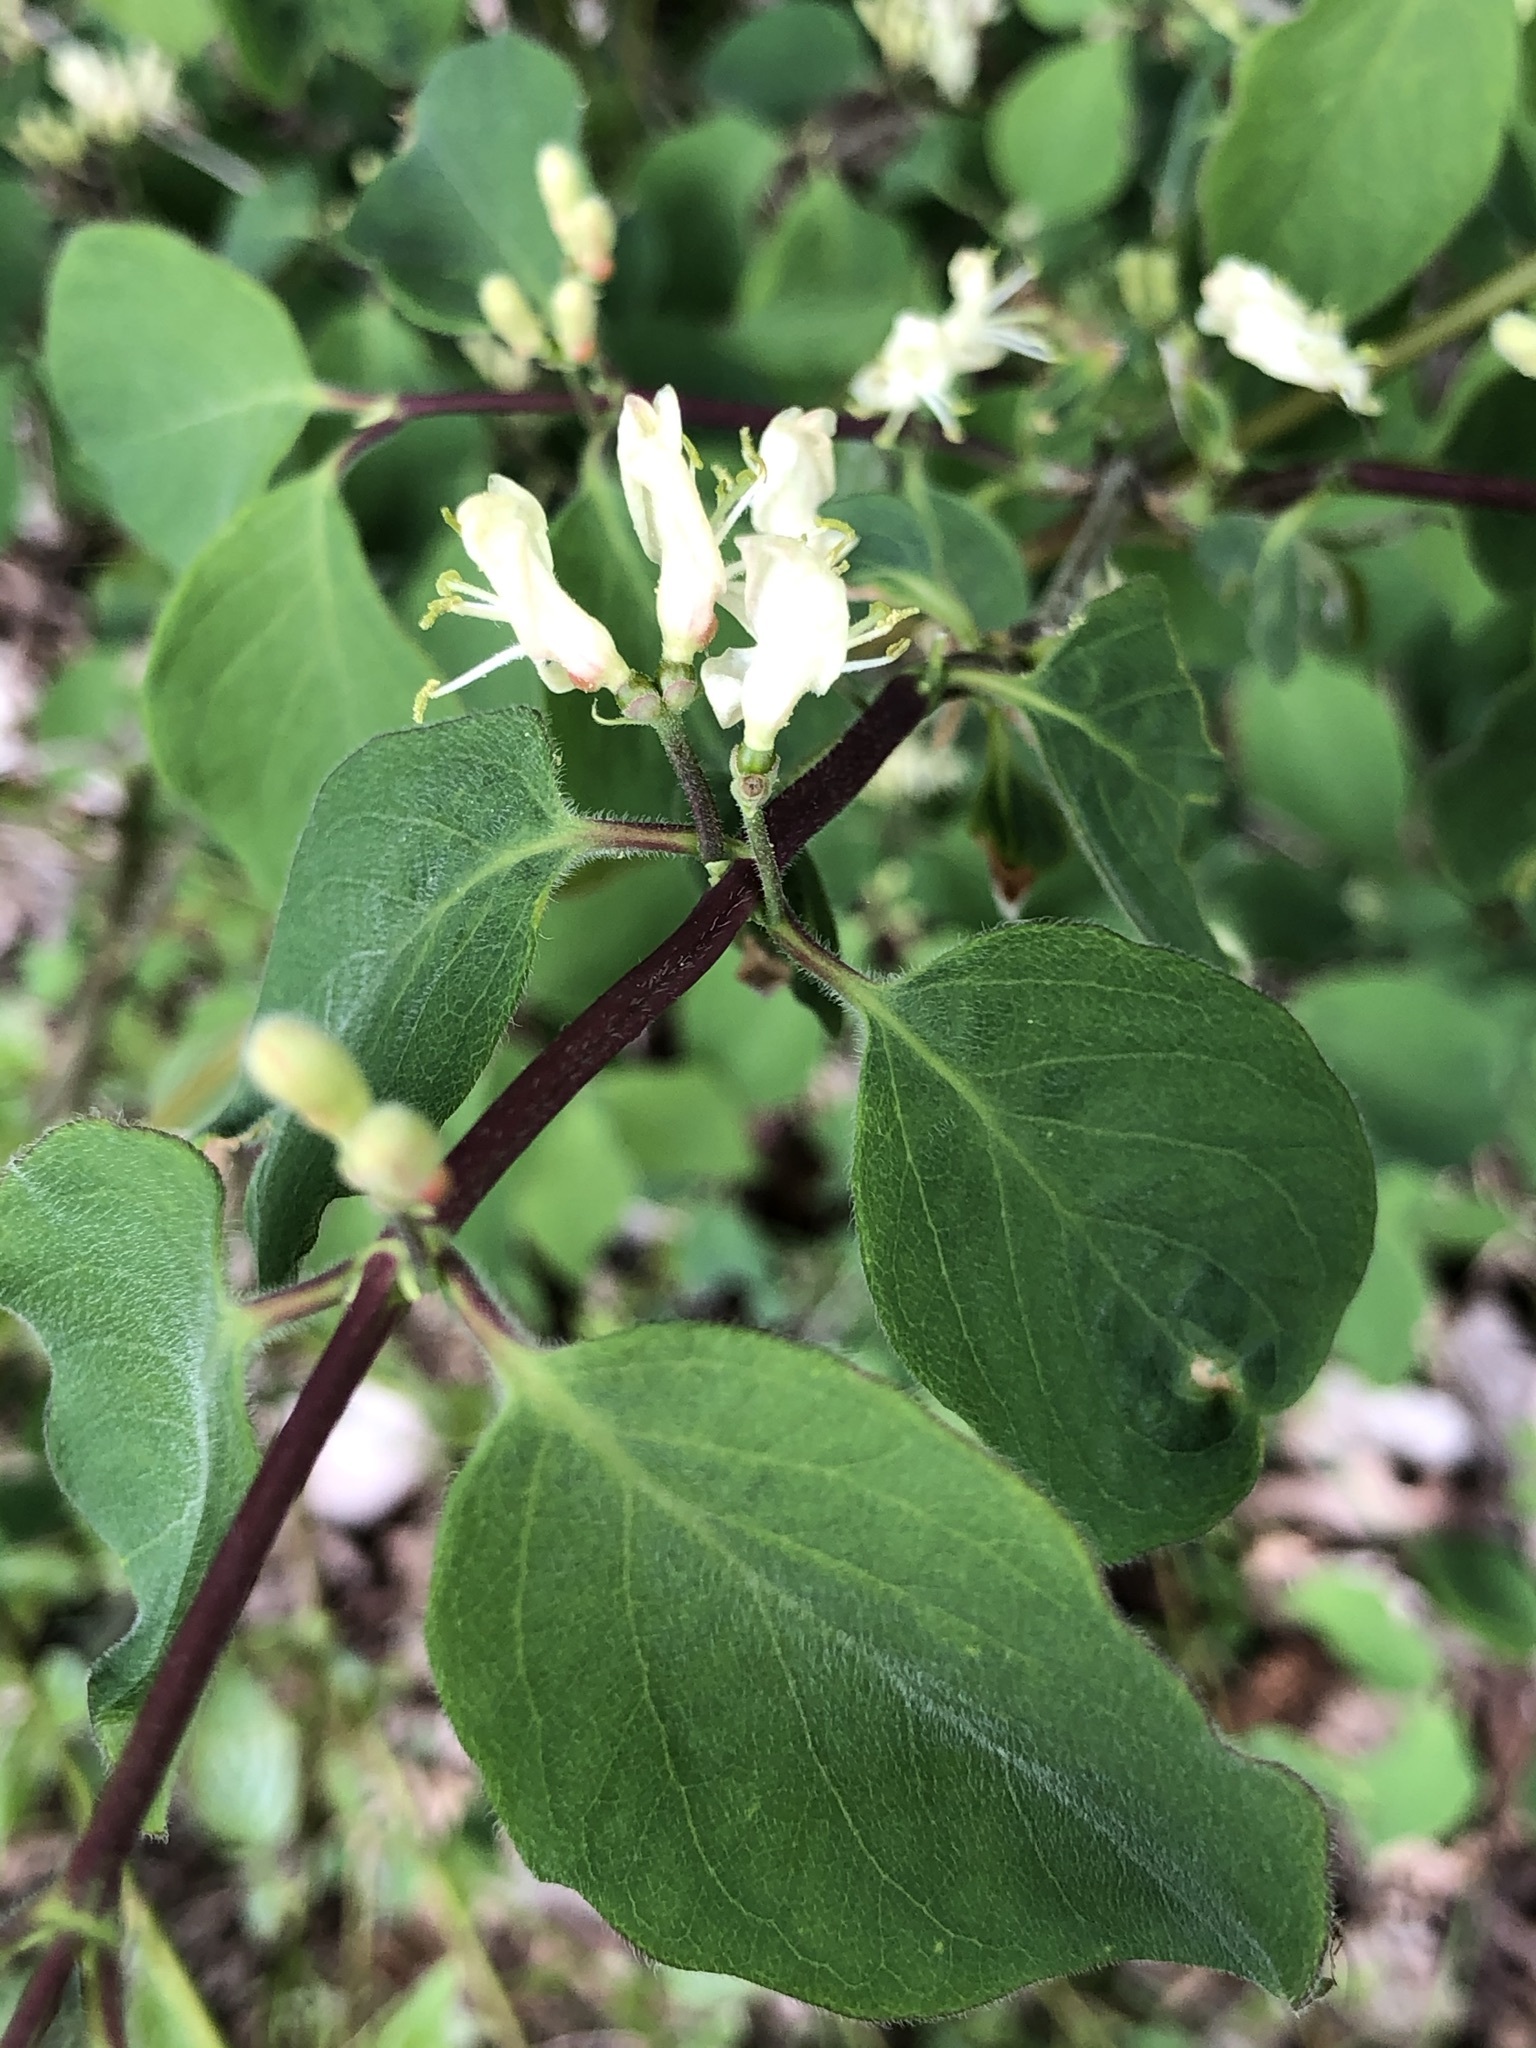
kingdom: Plantae
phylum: Tracheophyta
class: Magnoliopsida
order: Dipsacales
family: Caprifoliaceae
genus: Lonicera
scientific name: Lonicera xylosteum
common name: Fly honeysuckle
